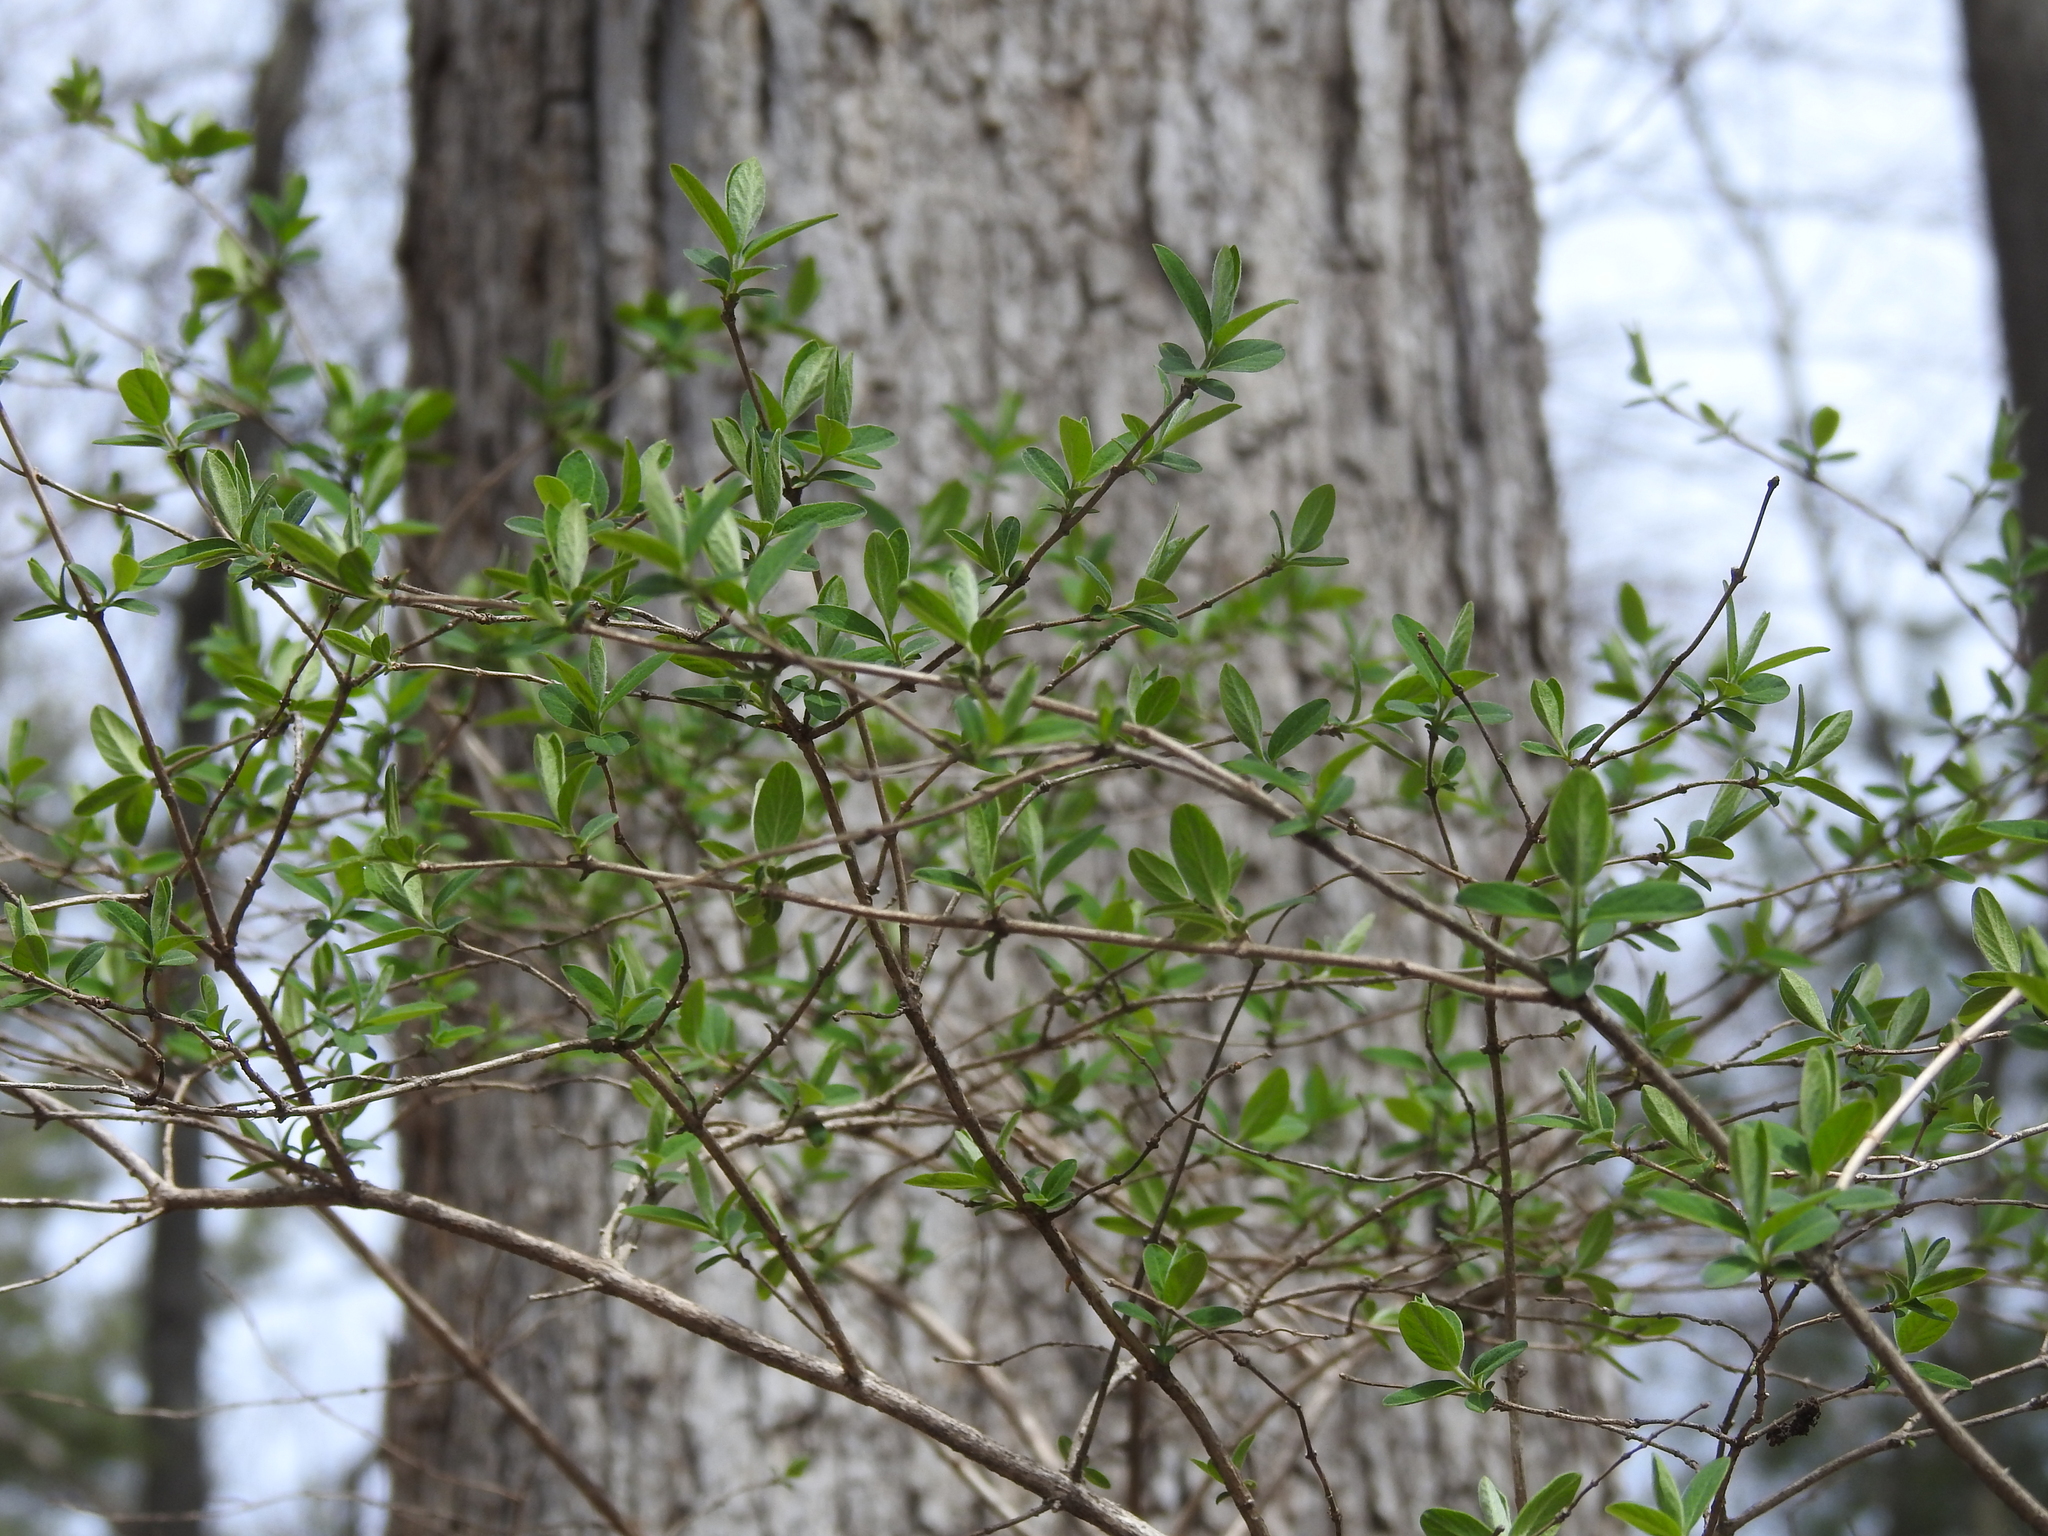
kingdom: Plantae
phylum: Tracheophyta
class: Magnoliopsida
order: Rosales
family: Elaeagnaceae
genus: Elaeagnus
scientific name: Elaeagnus umbellata
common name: Autumn olive
